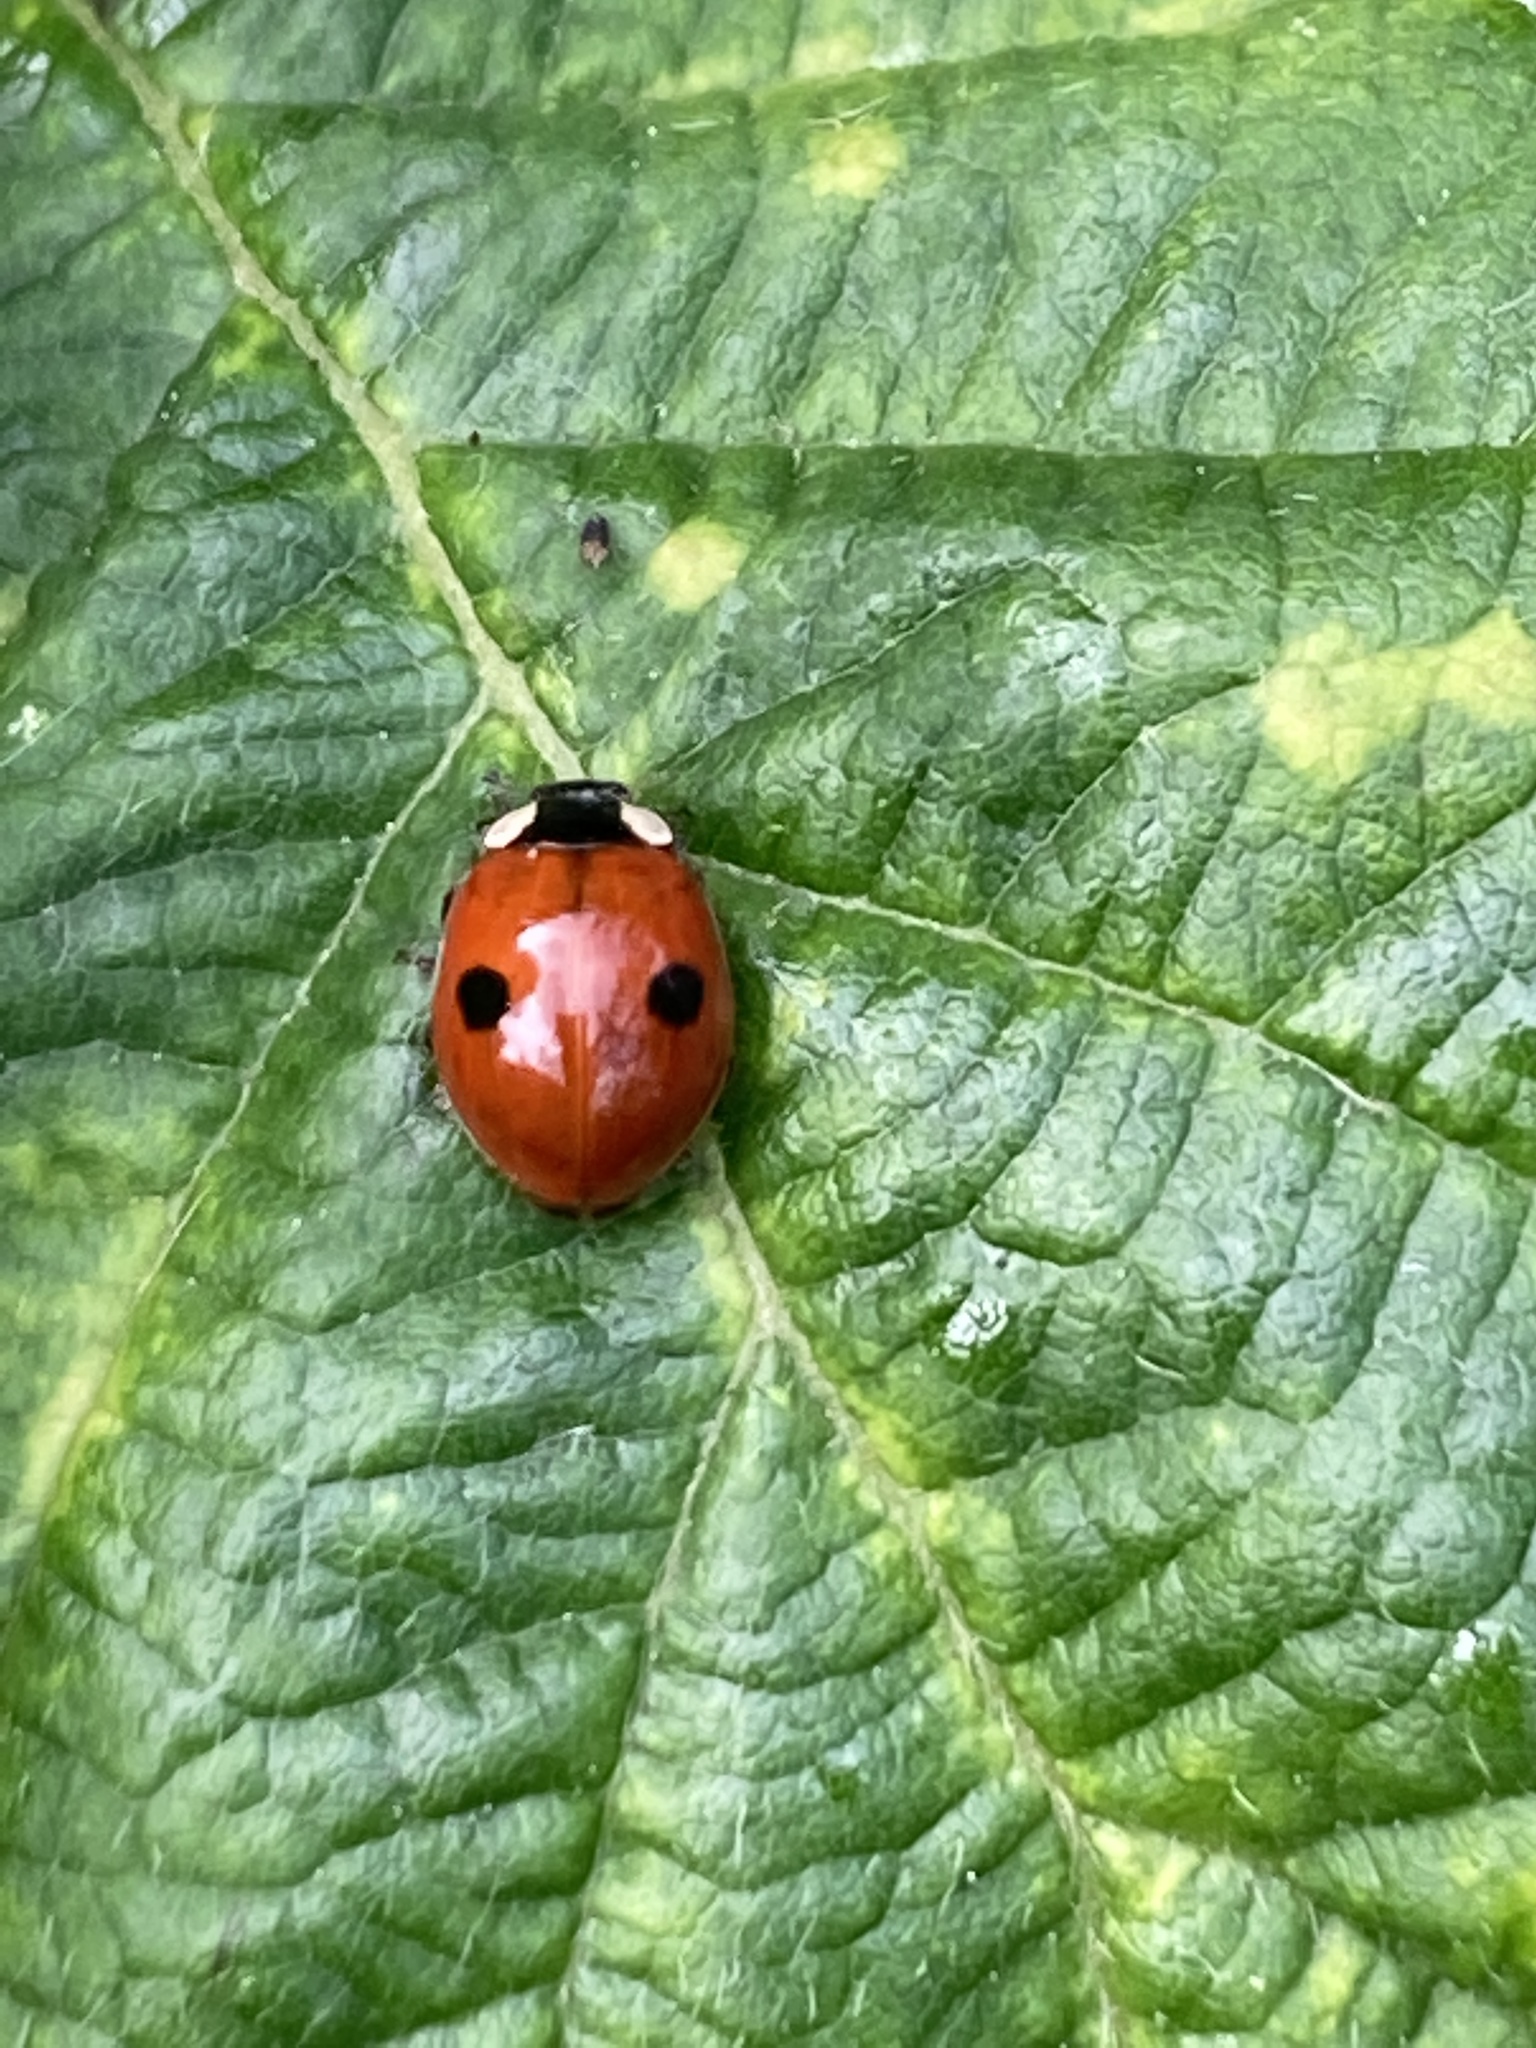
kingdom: Animalia
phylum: Arthropoda
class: Insecta
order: Coleoptera
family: Coccinellidae
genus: Adalia
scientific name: Adalia bipunctata
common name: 2-spot ladybird
